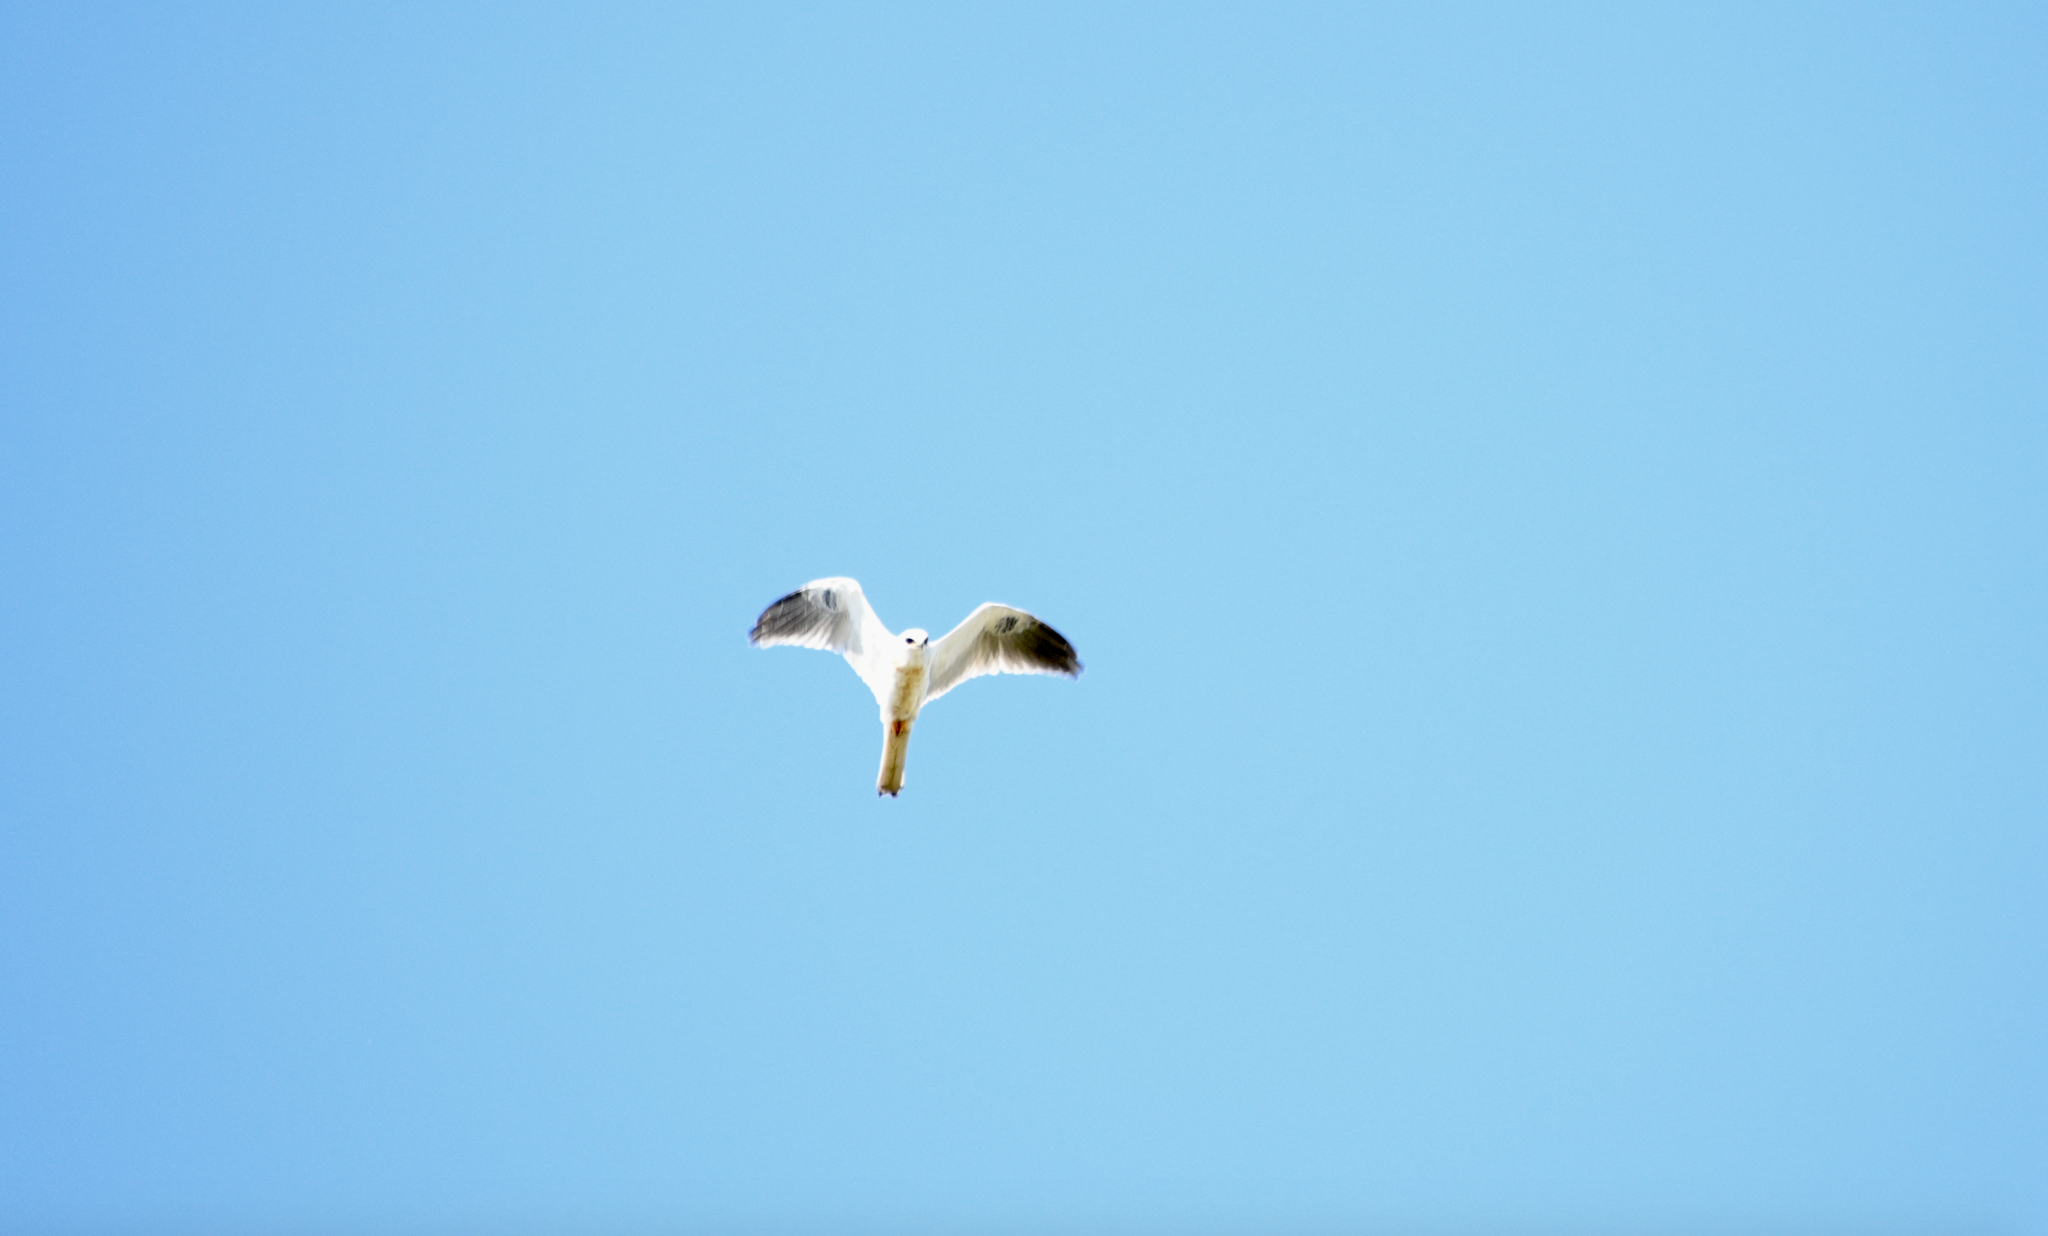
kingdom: Animalia
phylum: Chordata
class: Aves
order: Accipitriformes
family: Accipitridae
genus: Elanus
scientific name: Elanus leucurus
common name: White-tailed kite
